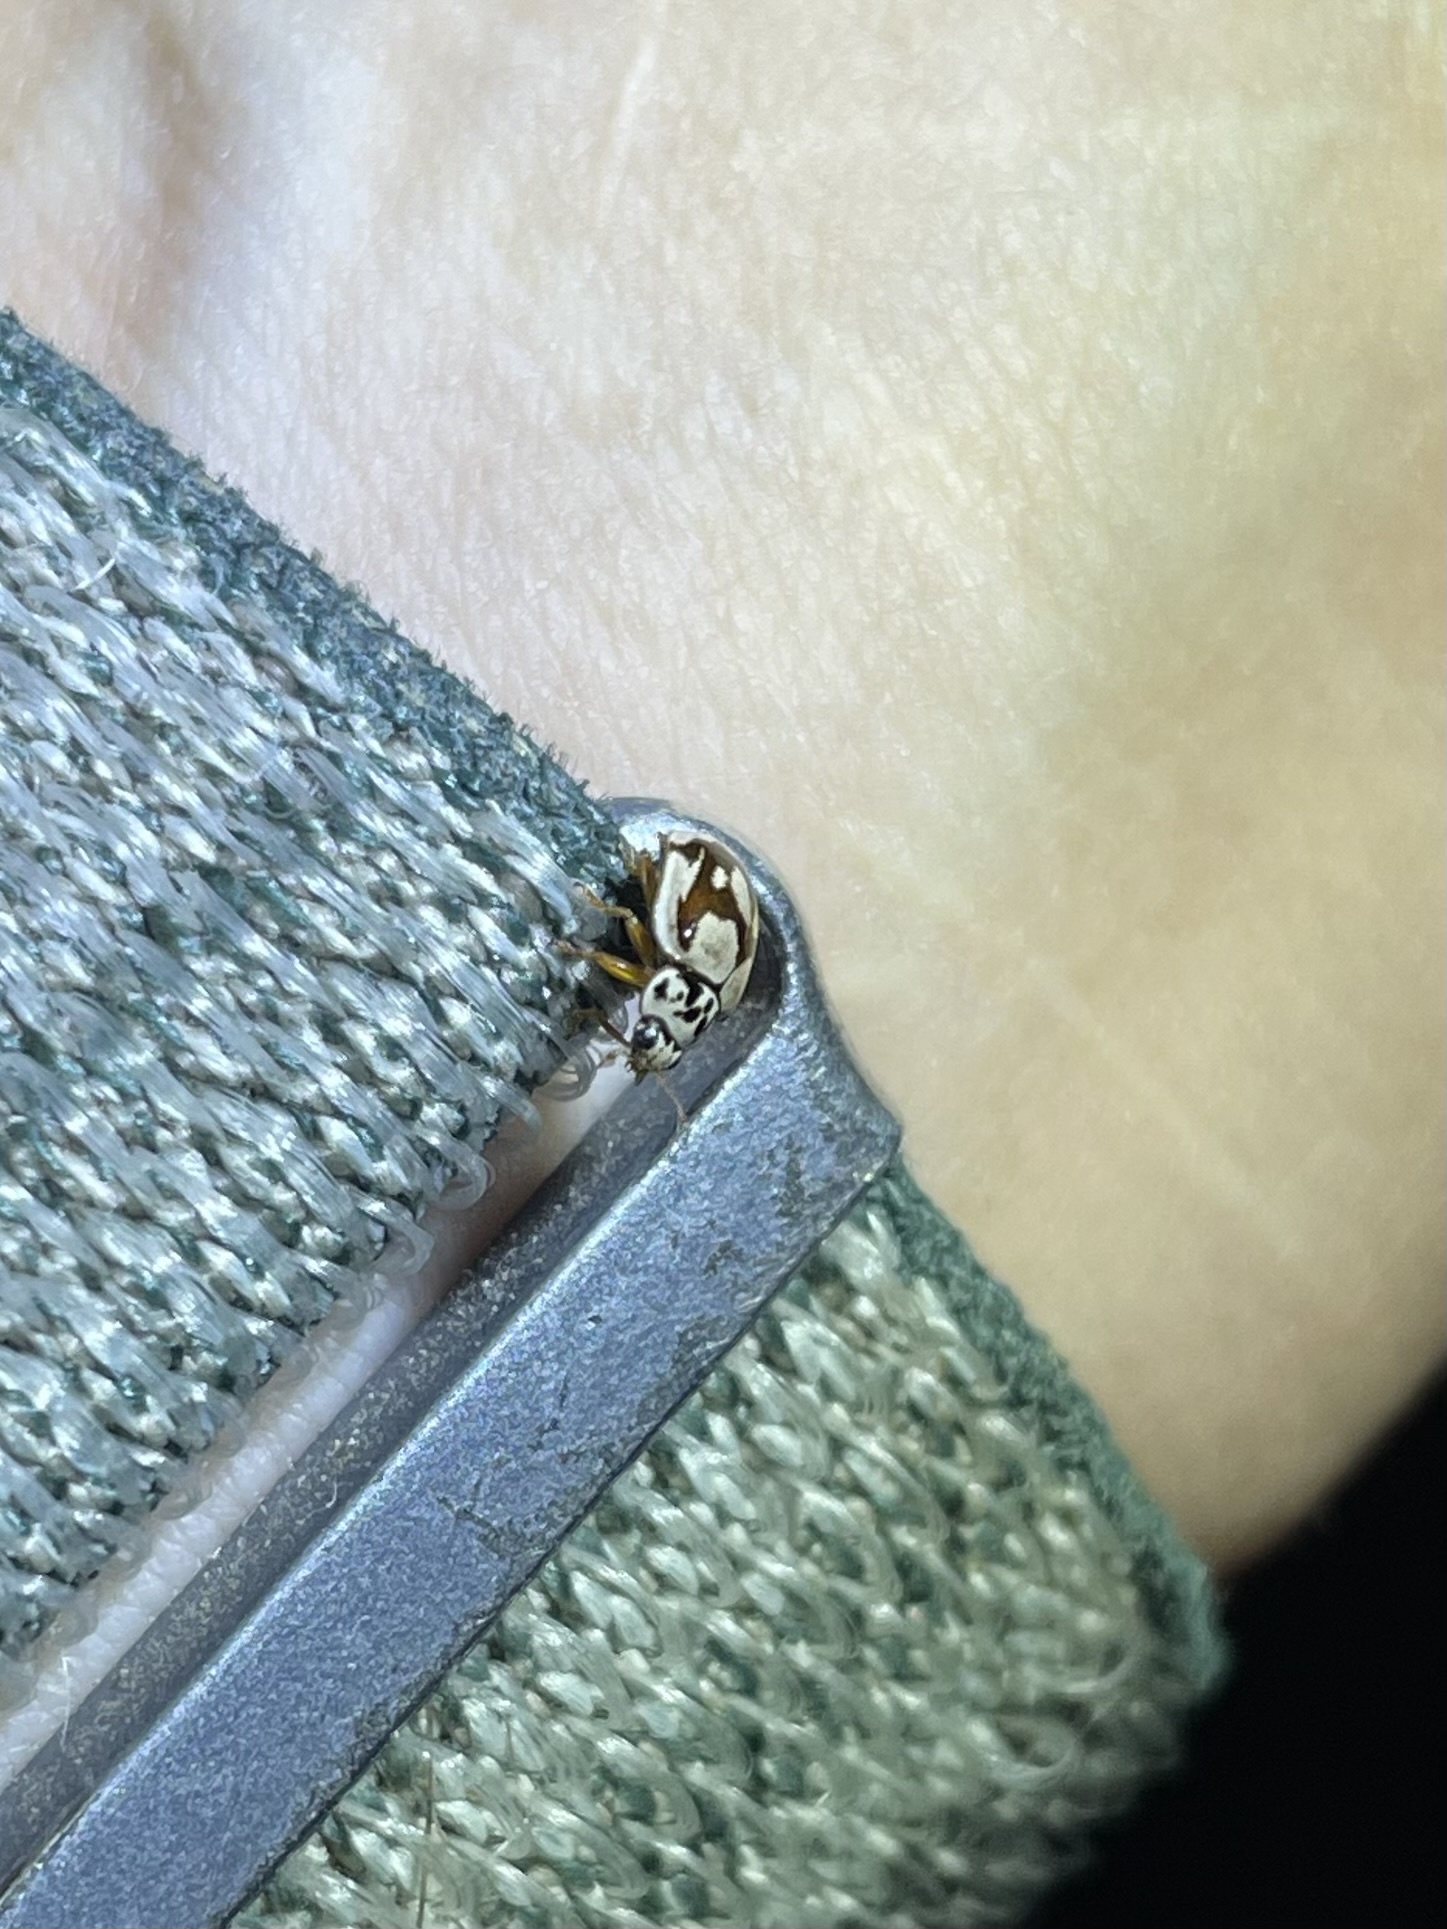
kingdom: Animalia
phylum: Arthropoda
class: Insecta
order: Coleoptera
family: Coccinellidae
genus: Mulsantina
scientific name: Mulsantina picta
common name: Painted ladybird
